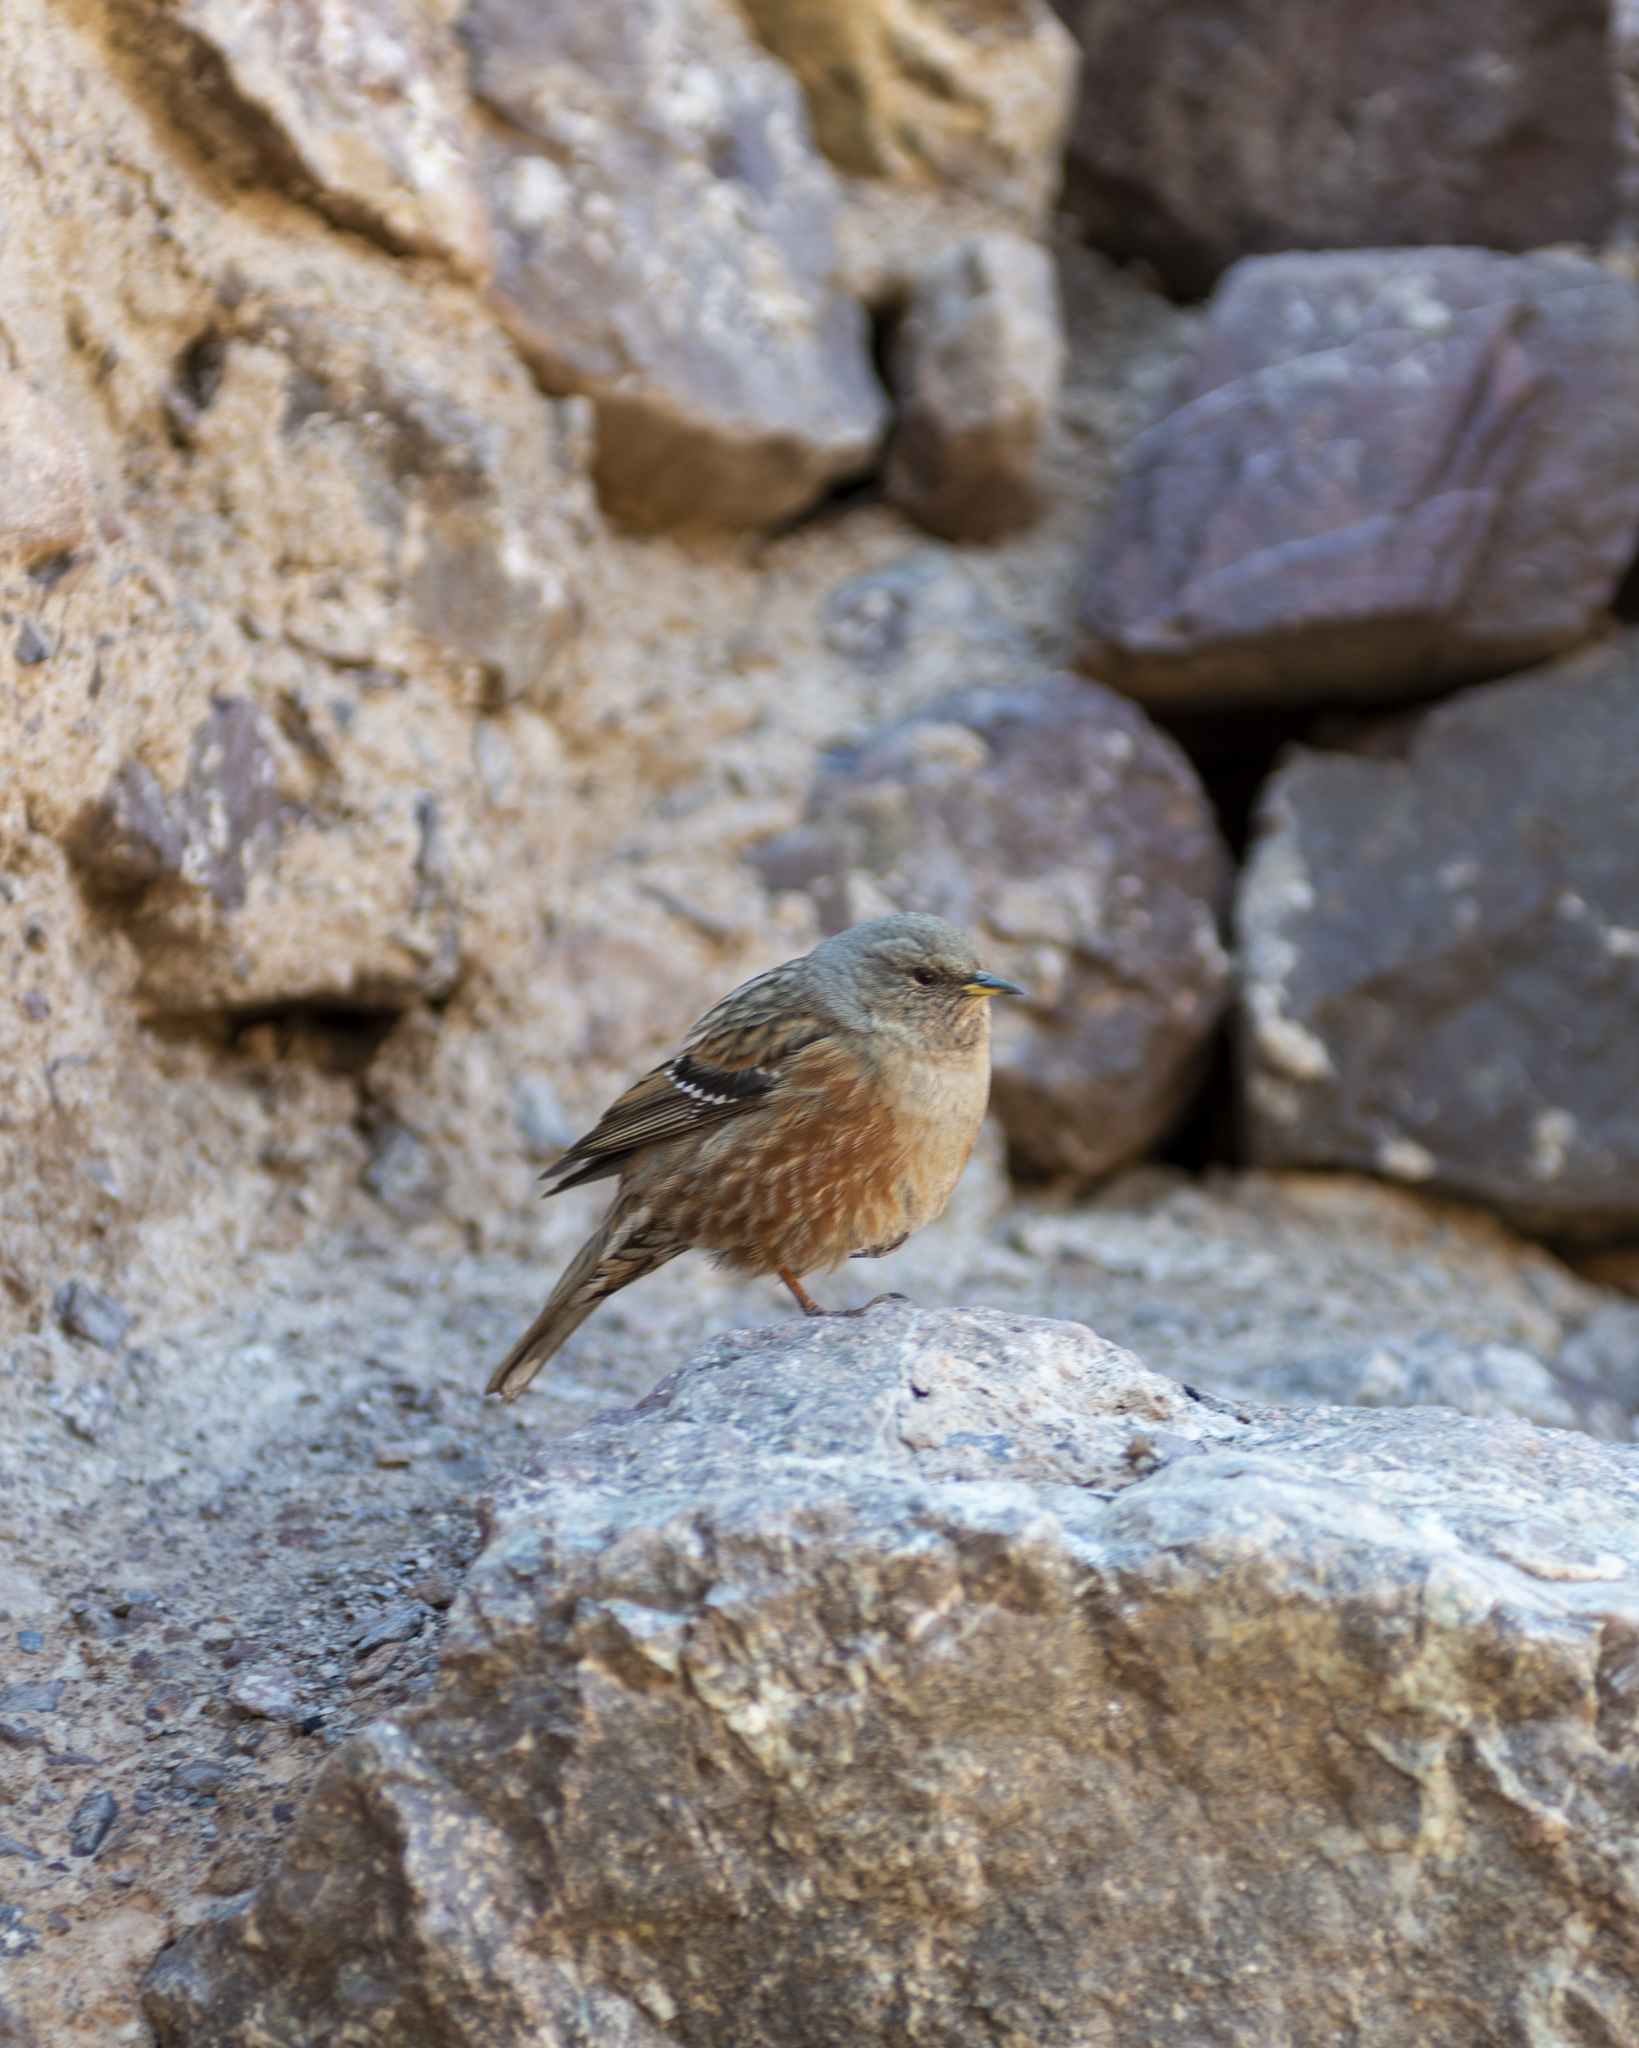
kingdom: Animalia
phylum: Chordata
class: Aves
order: Passeriformes
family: Prunellidae
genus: Prunella
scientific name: Prunella collaris
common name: Alpine accentor
